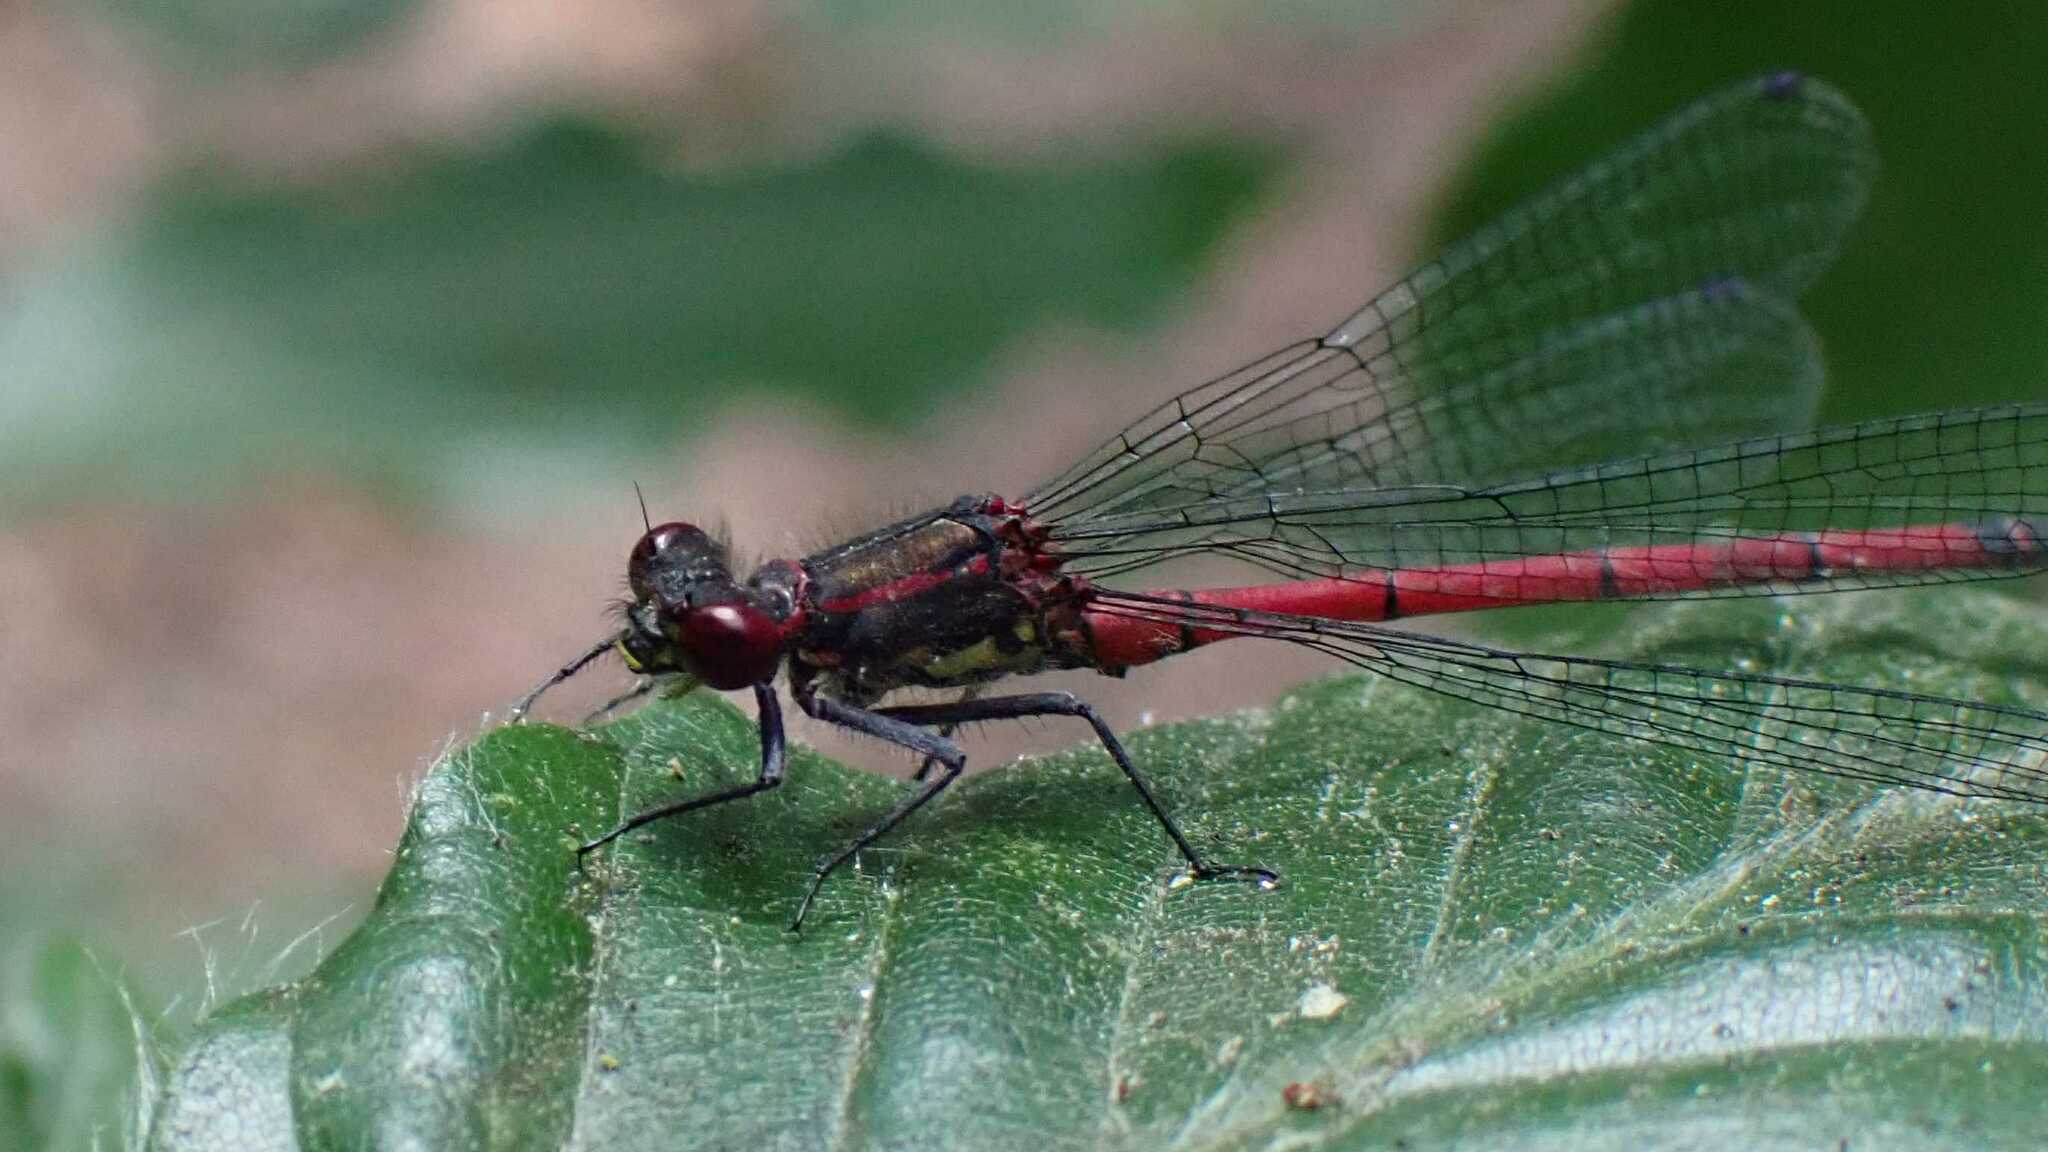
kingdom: Animalia
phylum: Arthropoda
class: Insecta
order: Odonata
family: Coenagrionidae
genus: Pyrrhosoma
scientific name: Pyrrhosoma nymphula
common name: Large red damsel
